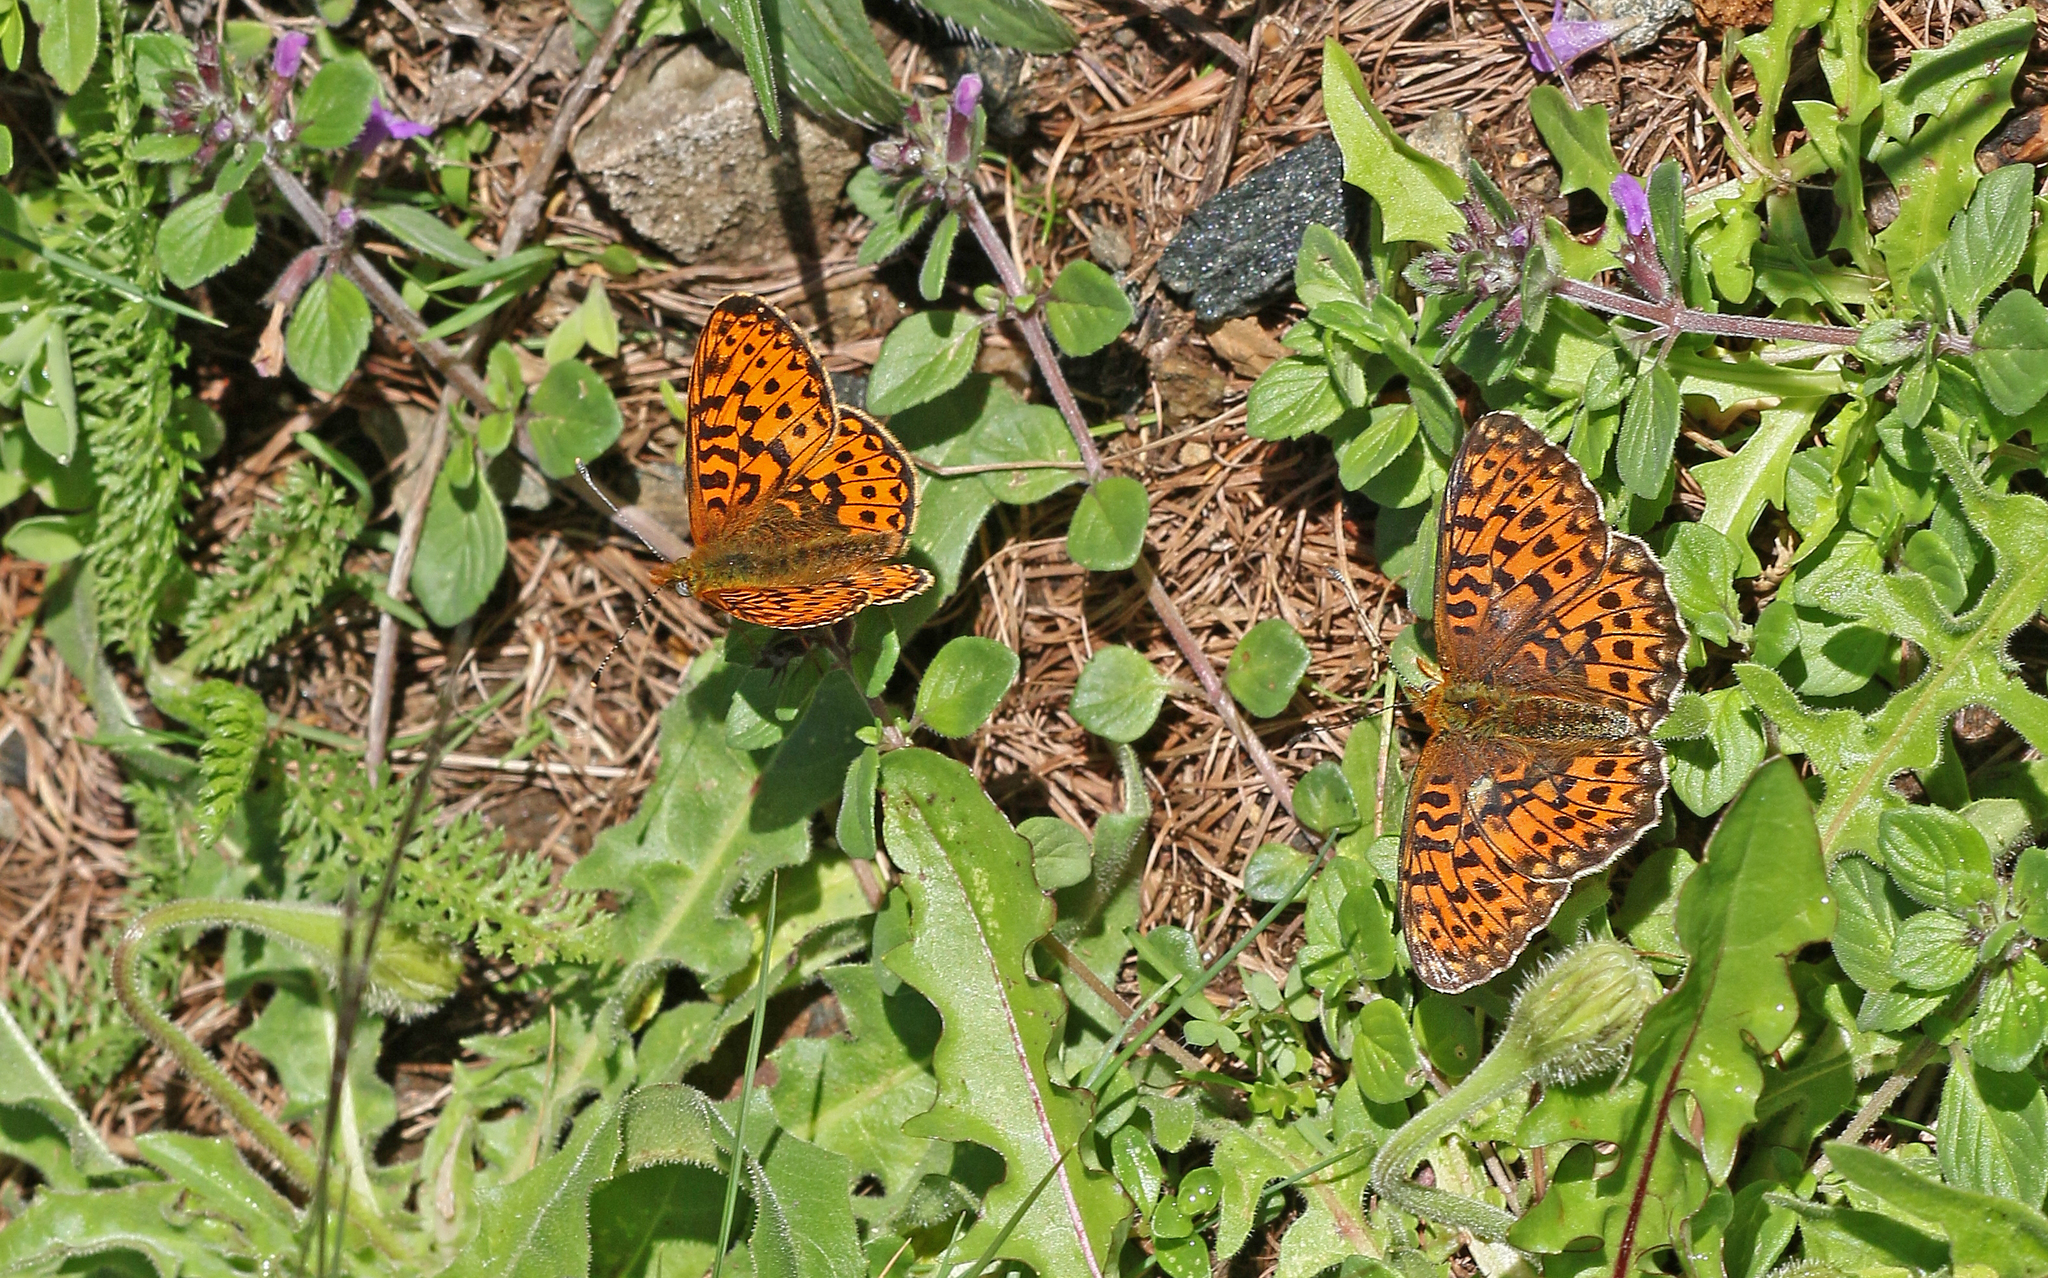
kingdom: Animalia
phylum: Arthropoda
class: Insecta
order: Lepidoptera
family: Nymphalidae
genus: Clossiana
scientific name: Clossiana euphrosyne
